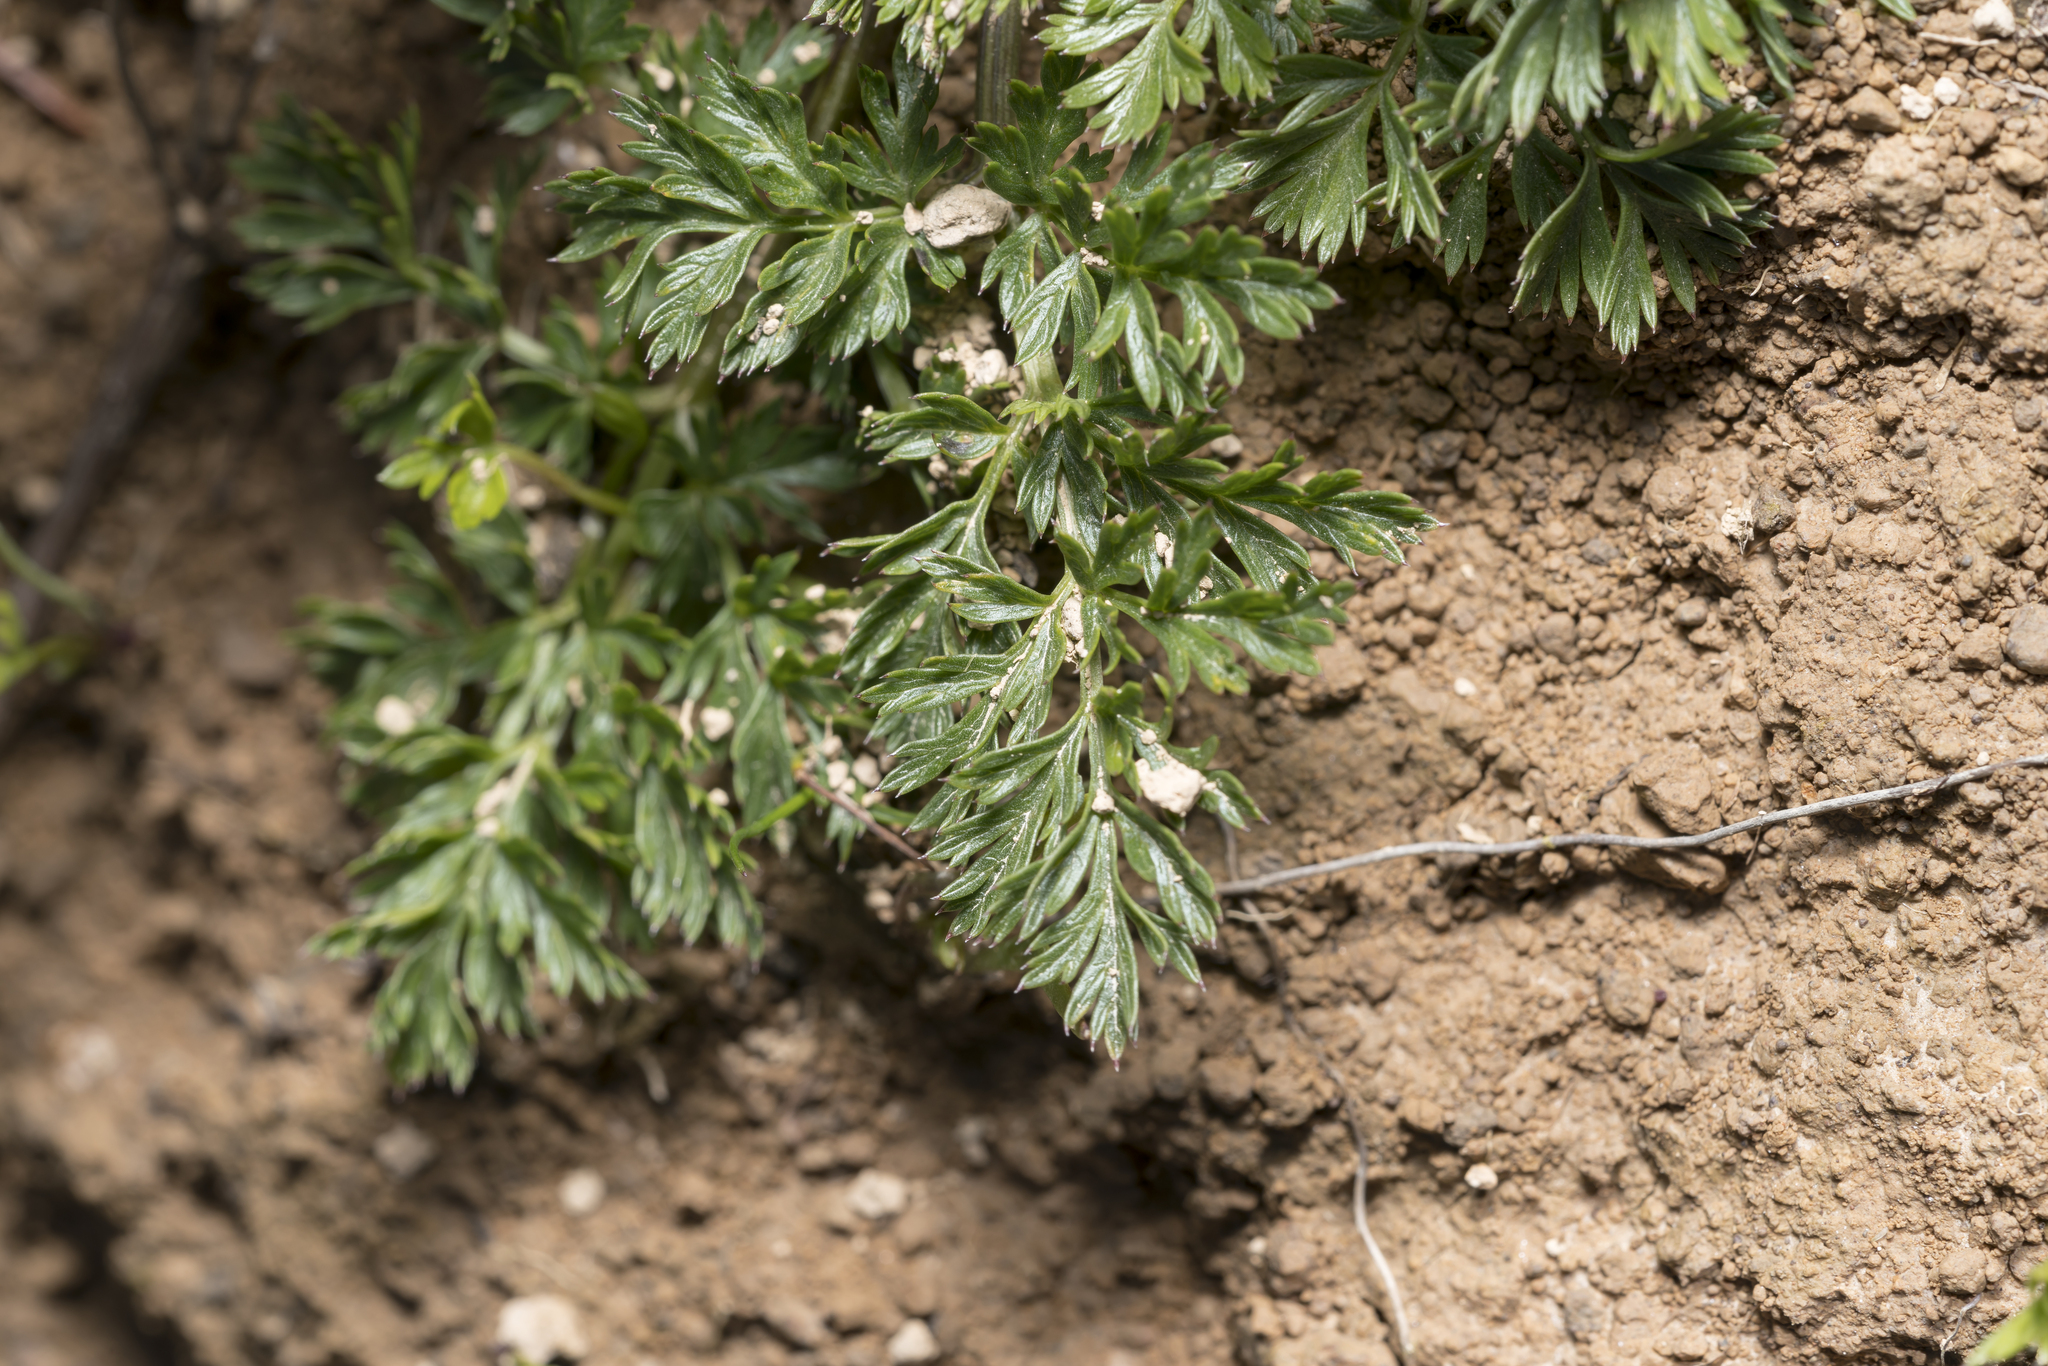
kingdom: Plantae
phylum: Tracheophyta
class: Magnoliopsida
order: Apiales
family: Apiaceae
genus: Mutellina
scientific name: Mutellina adonidifolia
